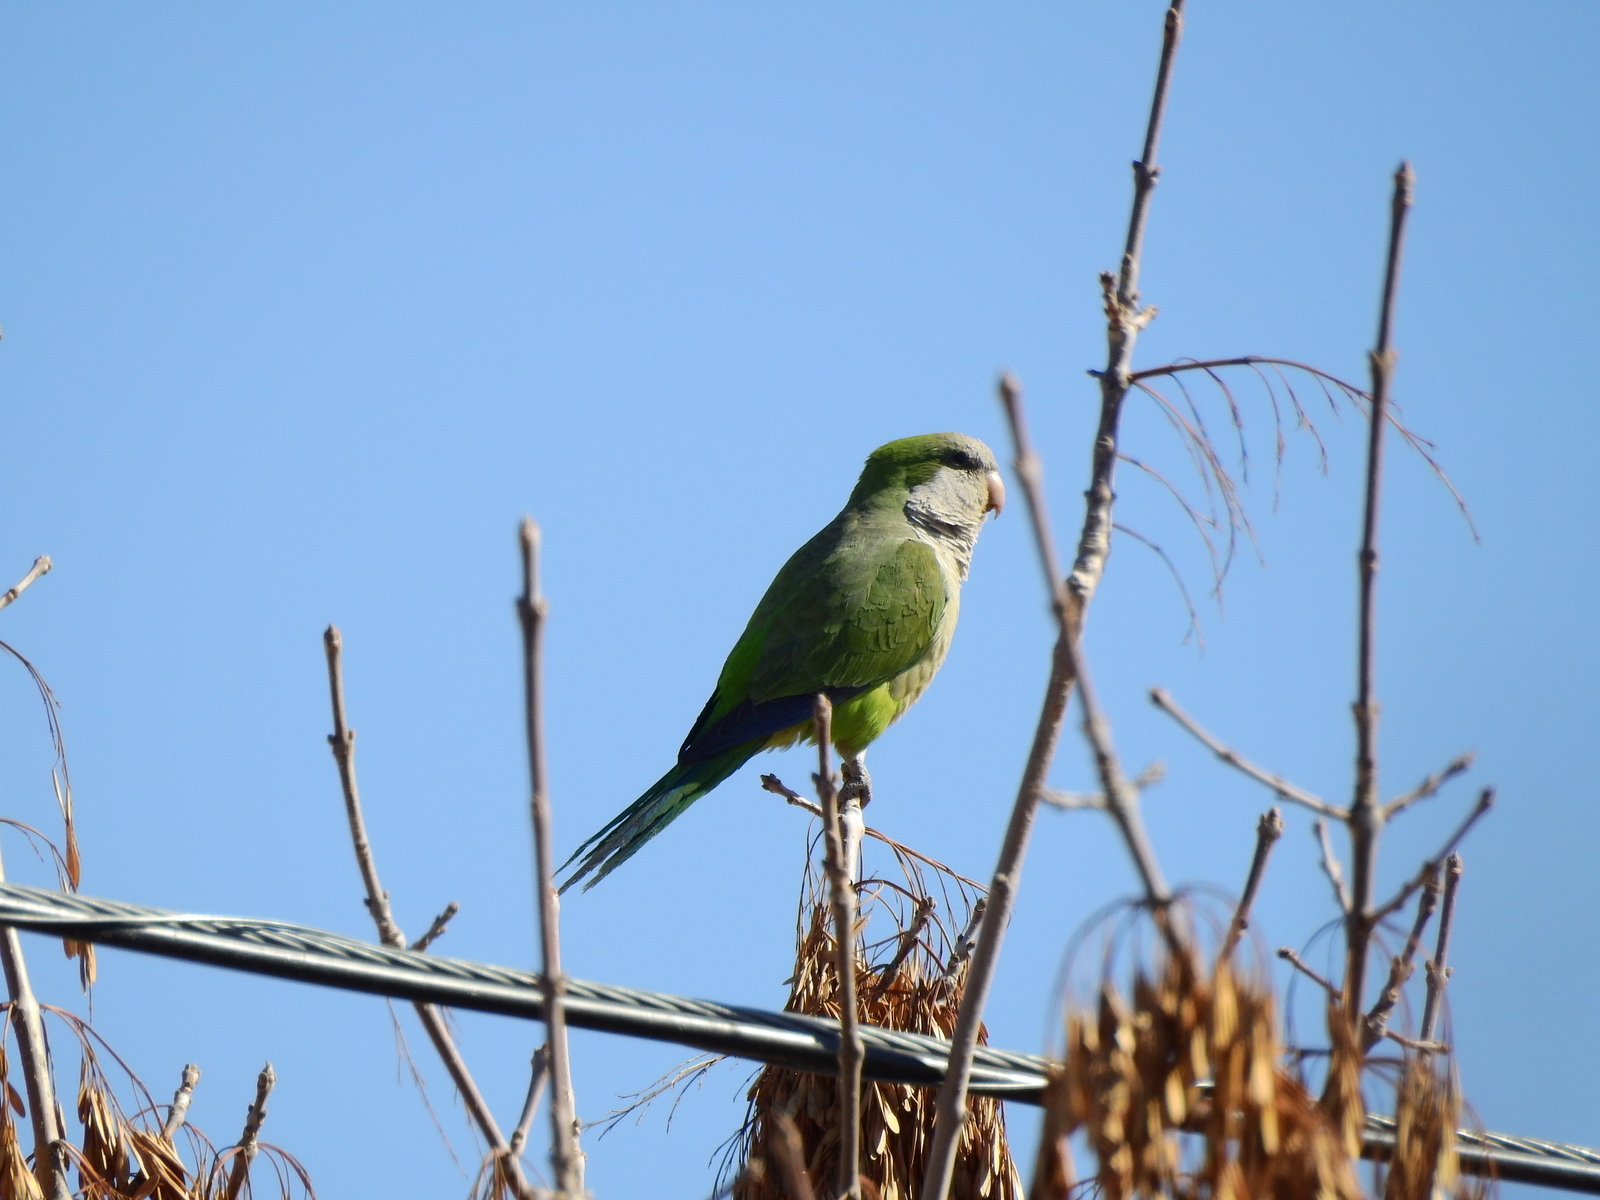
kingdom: Animalia
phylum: Chordata
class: Aves
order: Psittaciformes
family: Psittacidae
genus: Myiopsitta
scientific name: Myiopsitta monachus
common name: Monk parakeet
